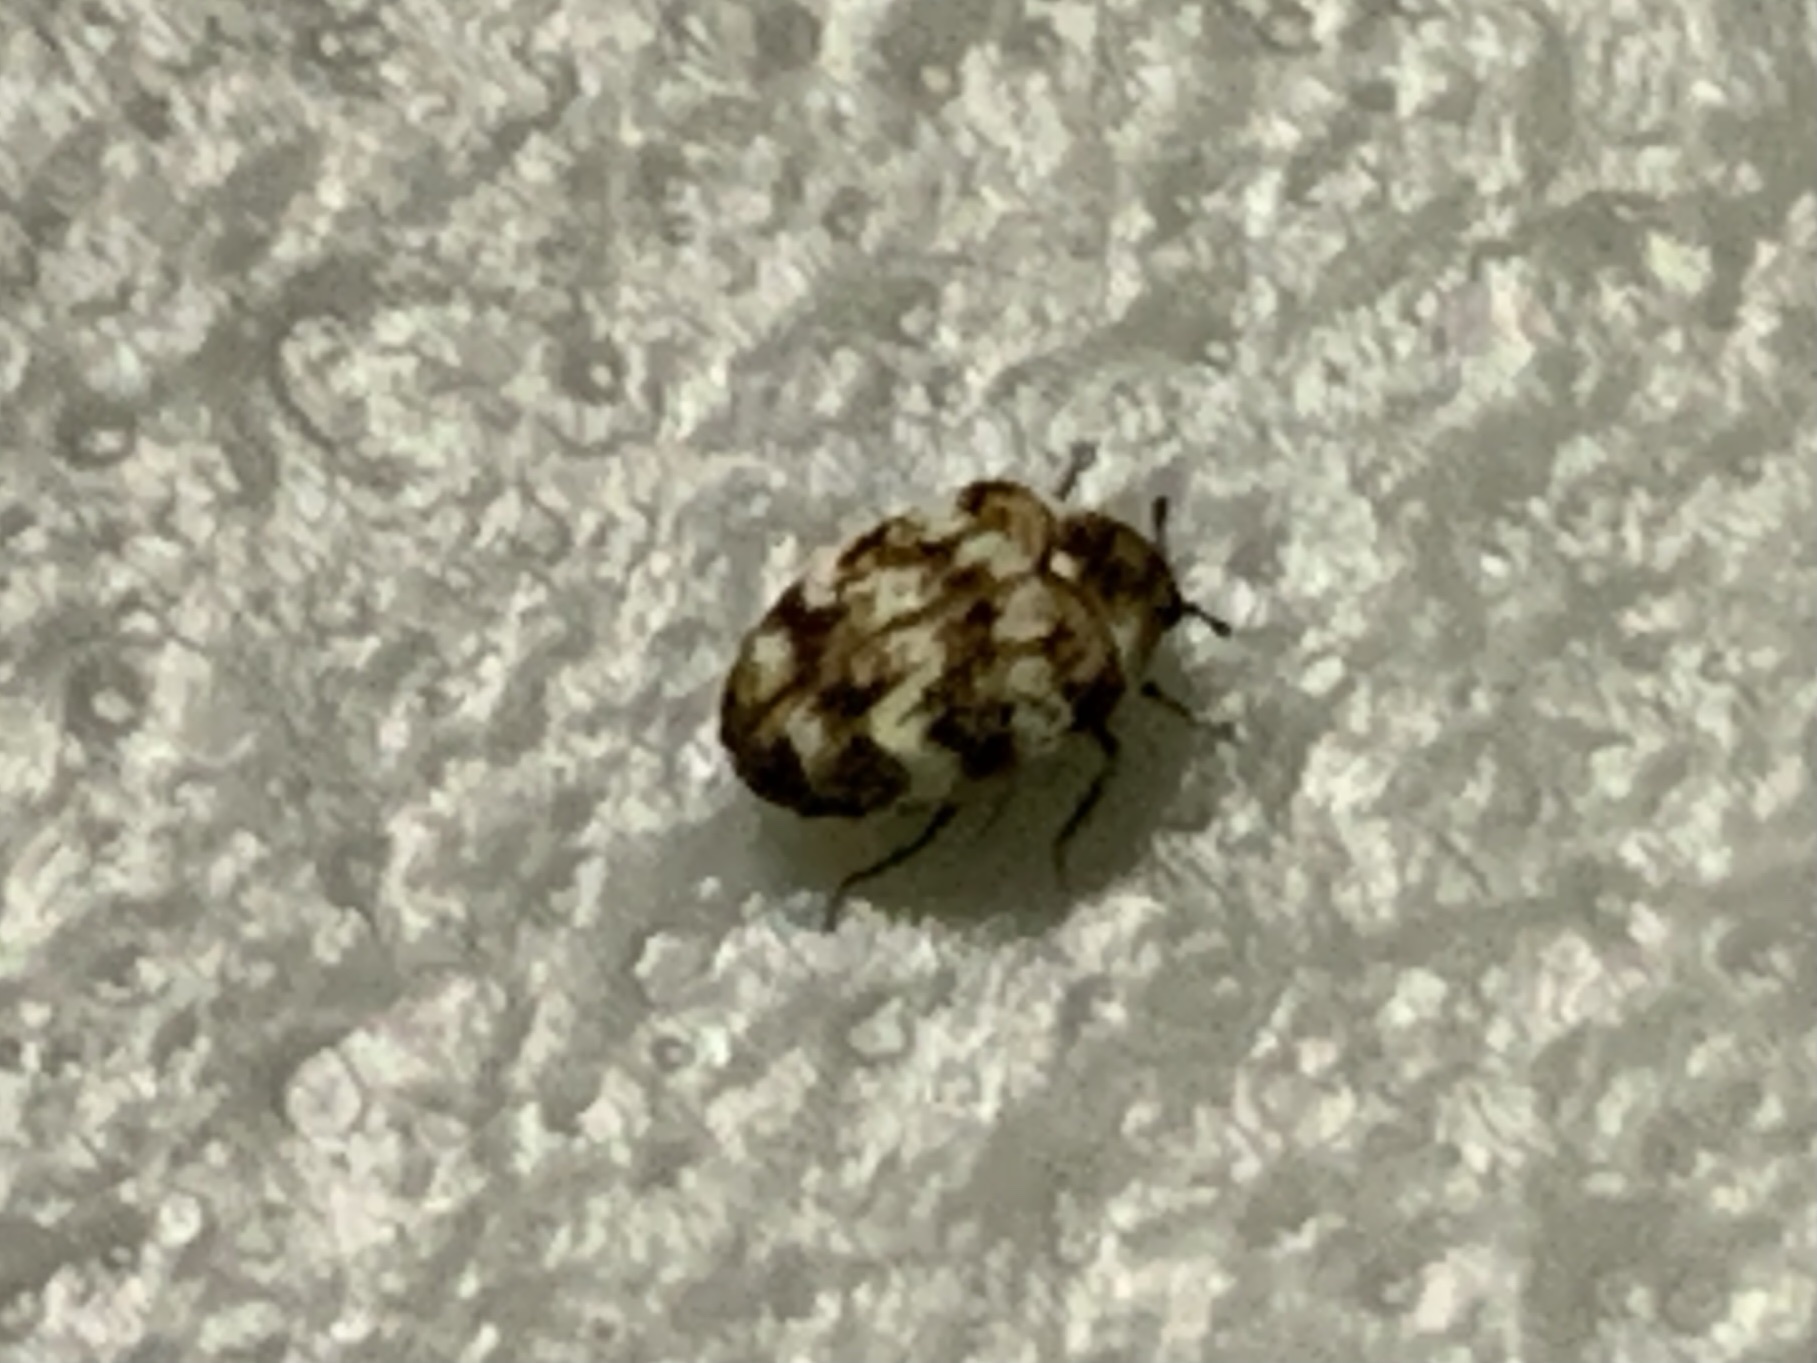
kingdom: Animalia
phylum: Arthropoda
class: Insecta
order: Coleoptera
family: Dermestidae
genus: Anthrenus
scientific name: Anthrenus verbasci
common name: Varied carpet beetle
